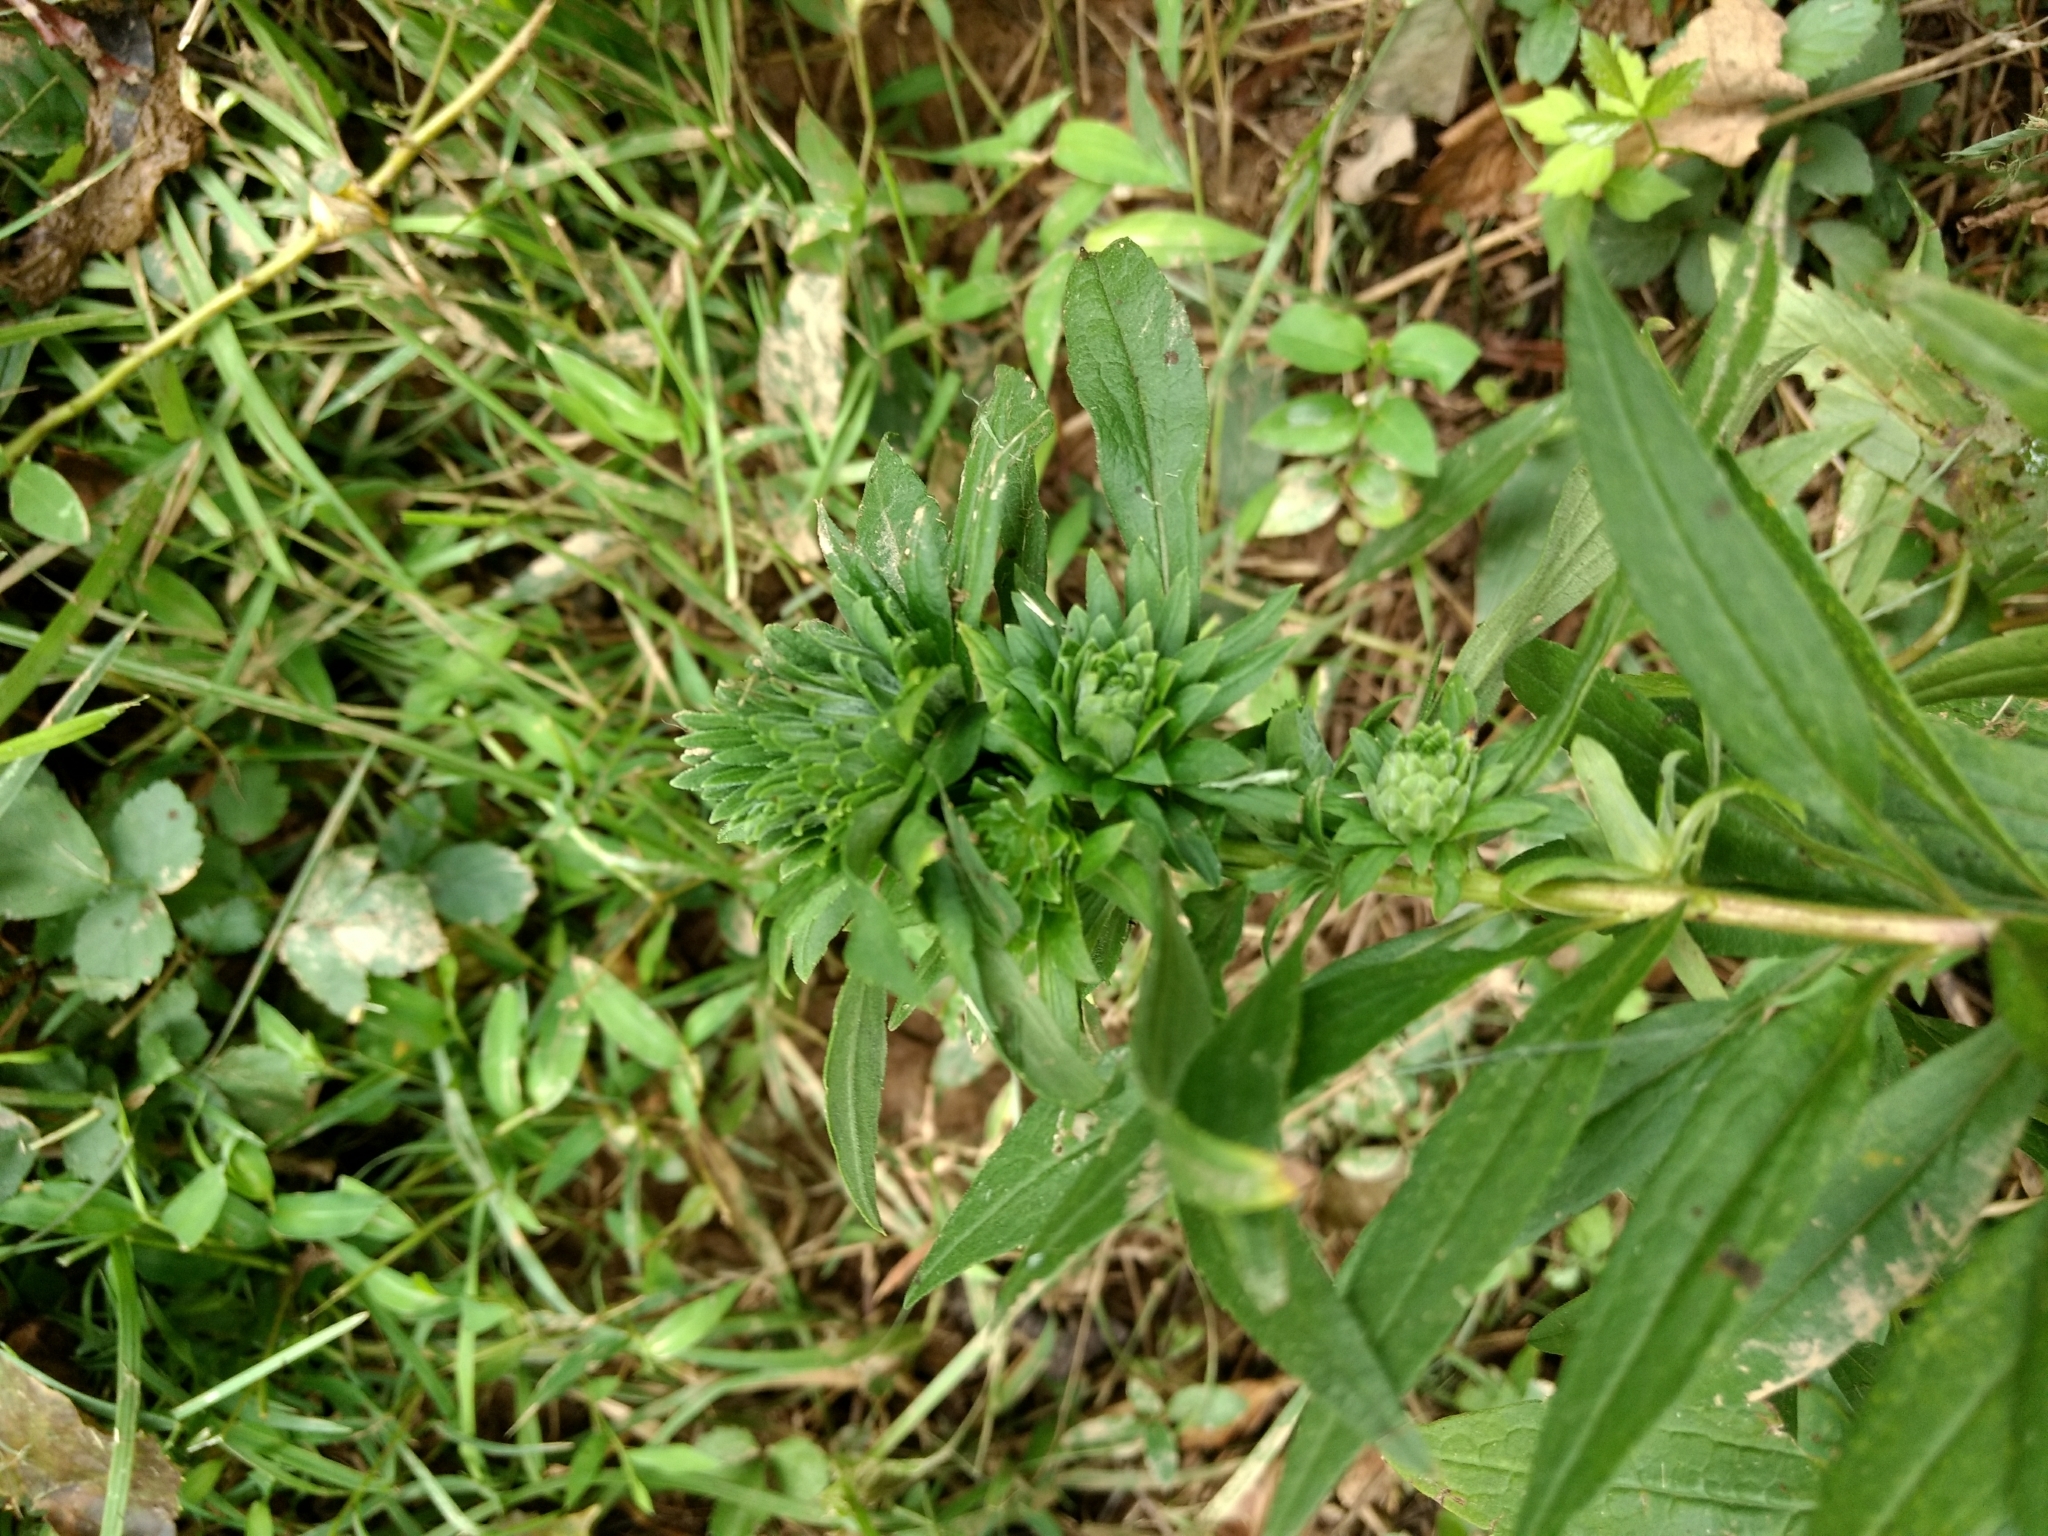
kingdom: Animalia
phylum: Arthropoda
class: Insecta
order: Diptera
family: Tephritidae
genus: Procecidochares
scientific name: Procecidochares atra
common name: Goldenrod brussels sprout gall fly
